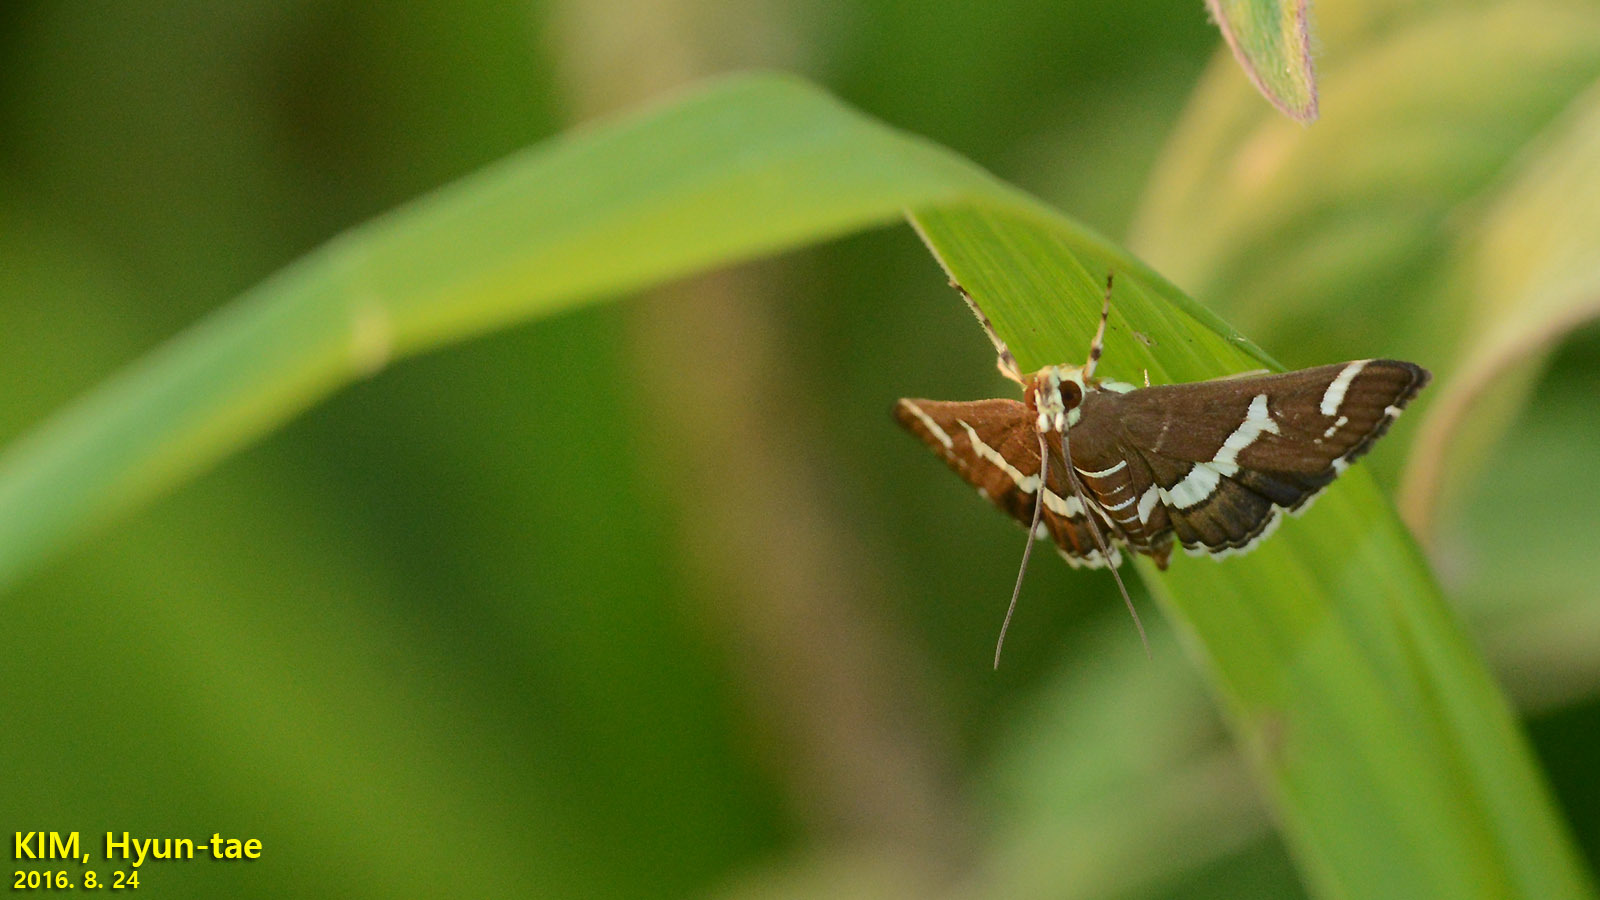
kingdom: Animalia
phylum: Arthropoda
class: Insecta
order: Lepidoptera
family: Crambidae
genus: Spoladea
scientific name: Spoladea recurvalis
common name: Beet webworm moth
